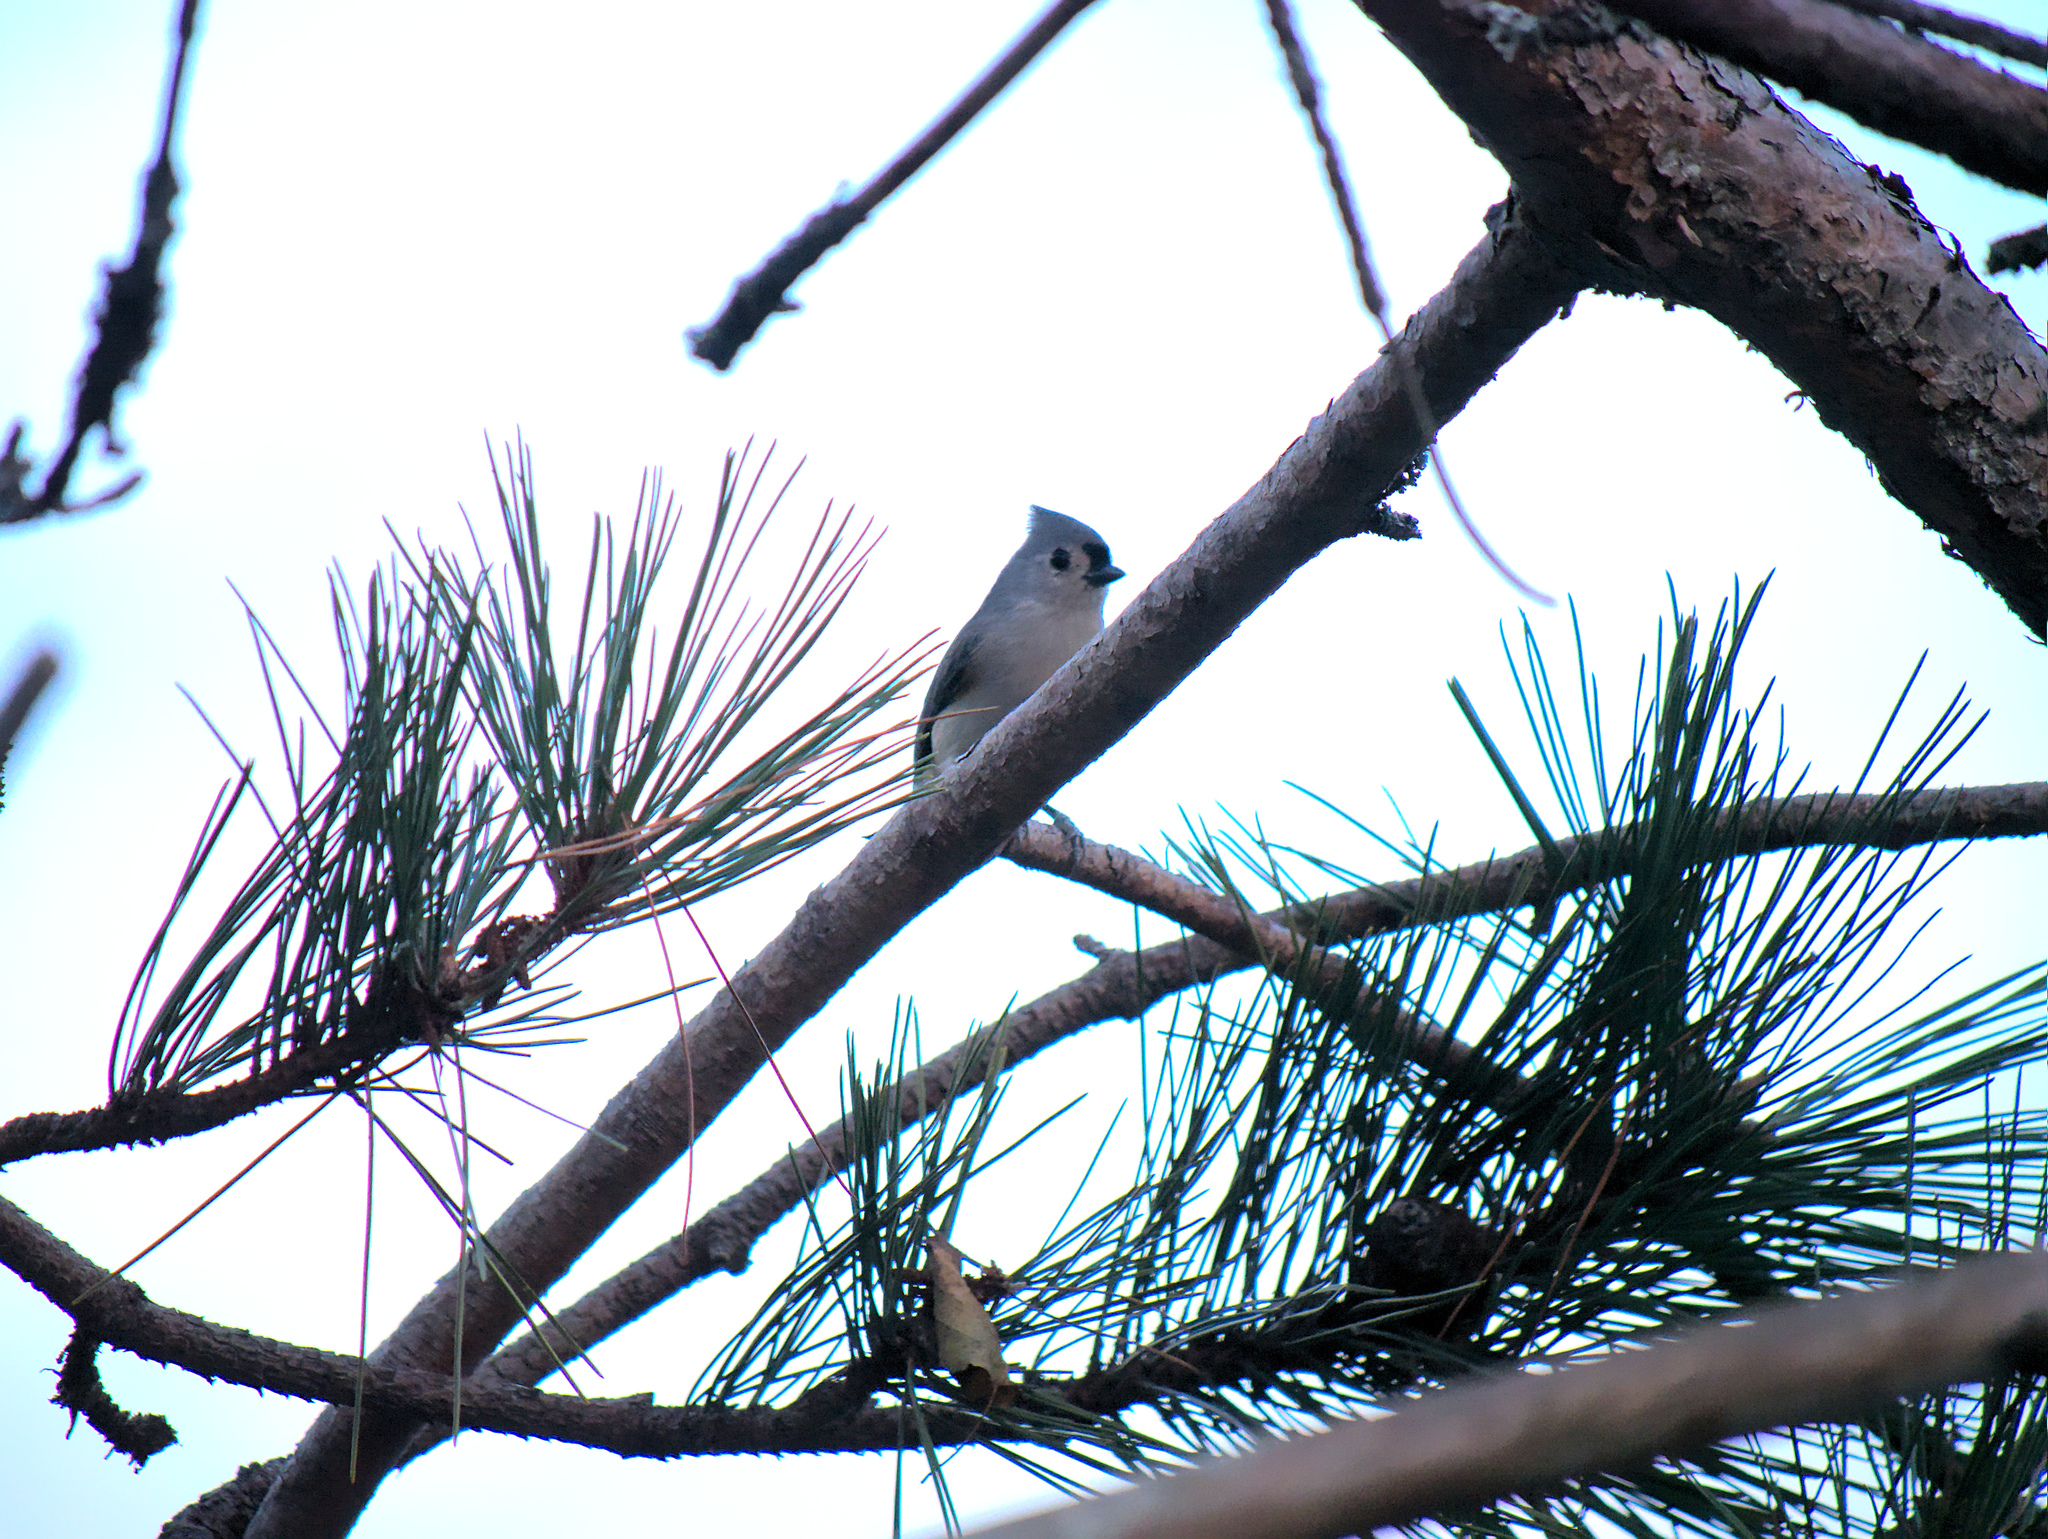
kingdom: Animalia
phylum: Chordata
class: Aves
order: Passeriformes
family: Paridae
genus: Baeolophus
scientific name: Baeolophus bicolor
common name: Tufted titmouse
